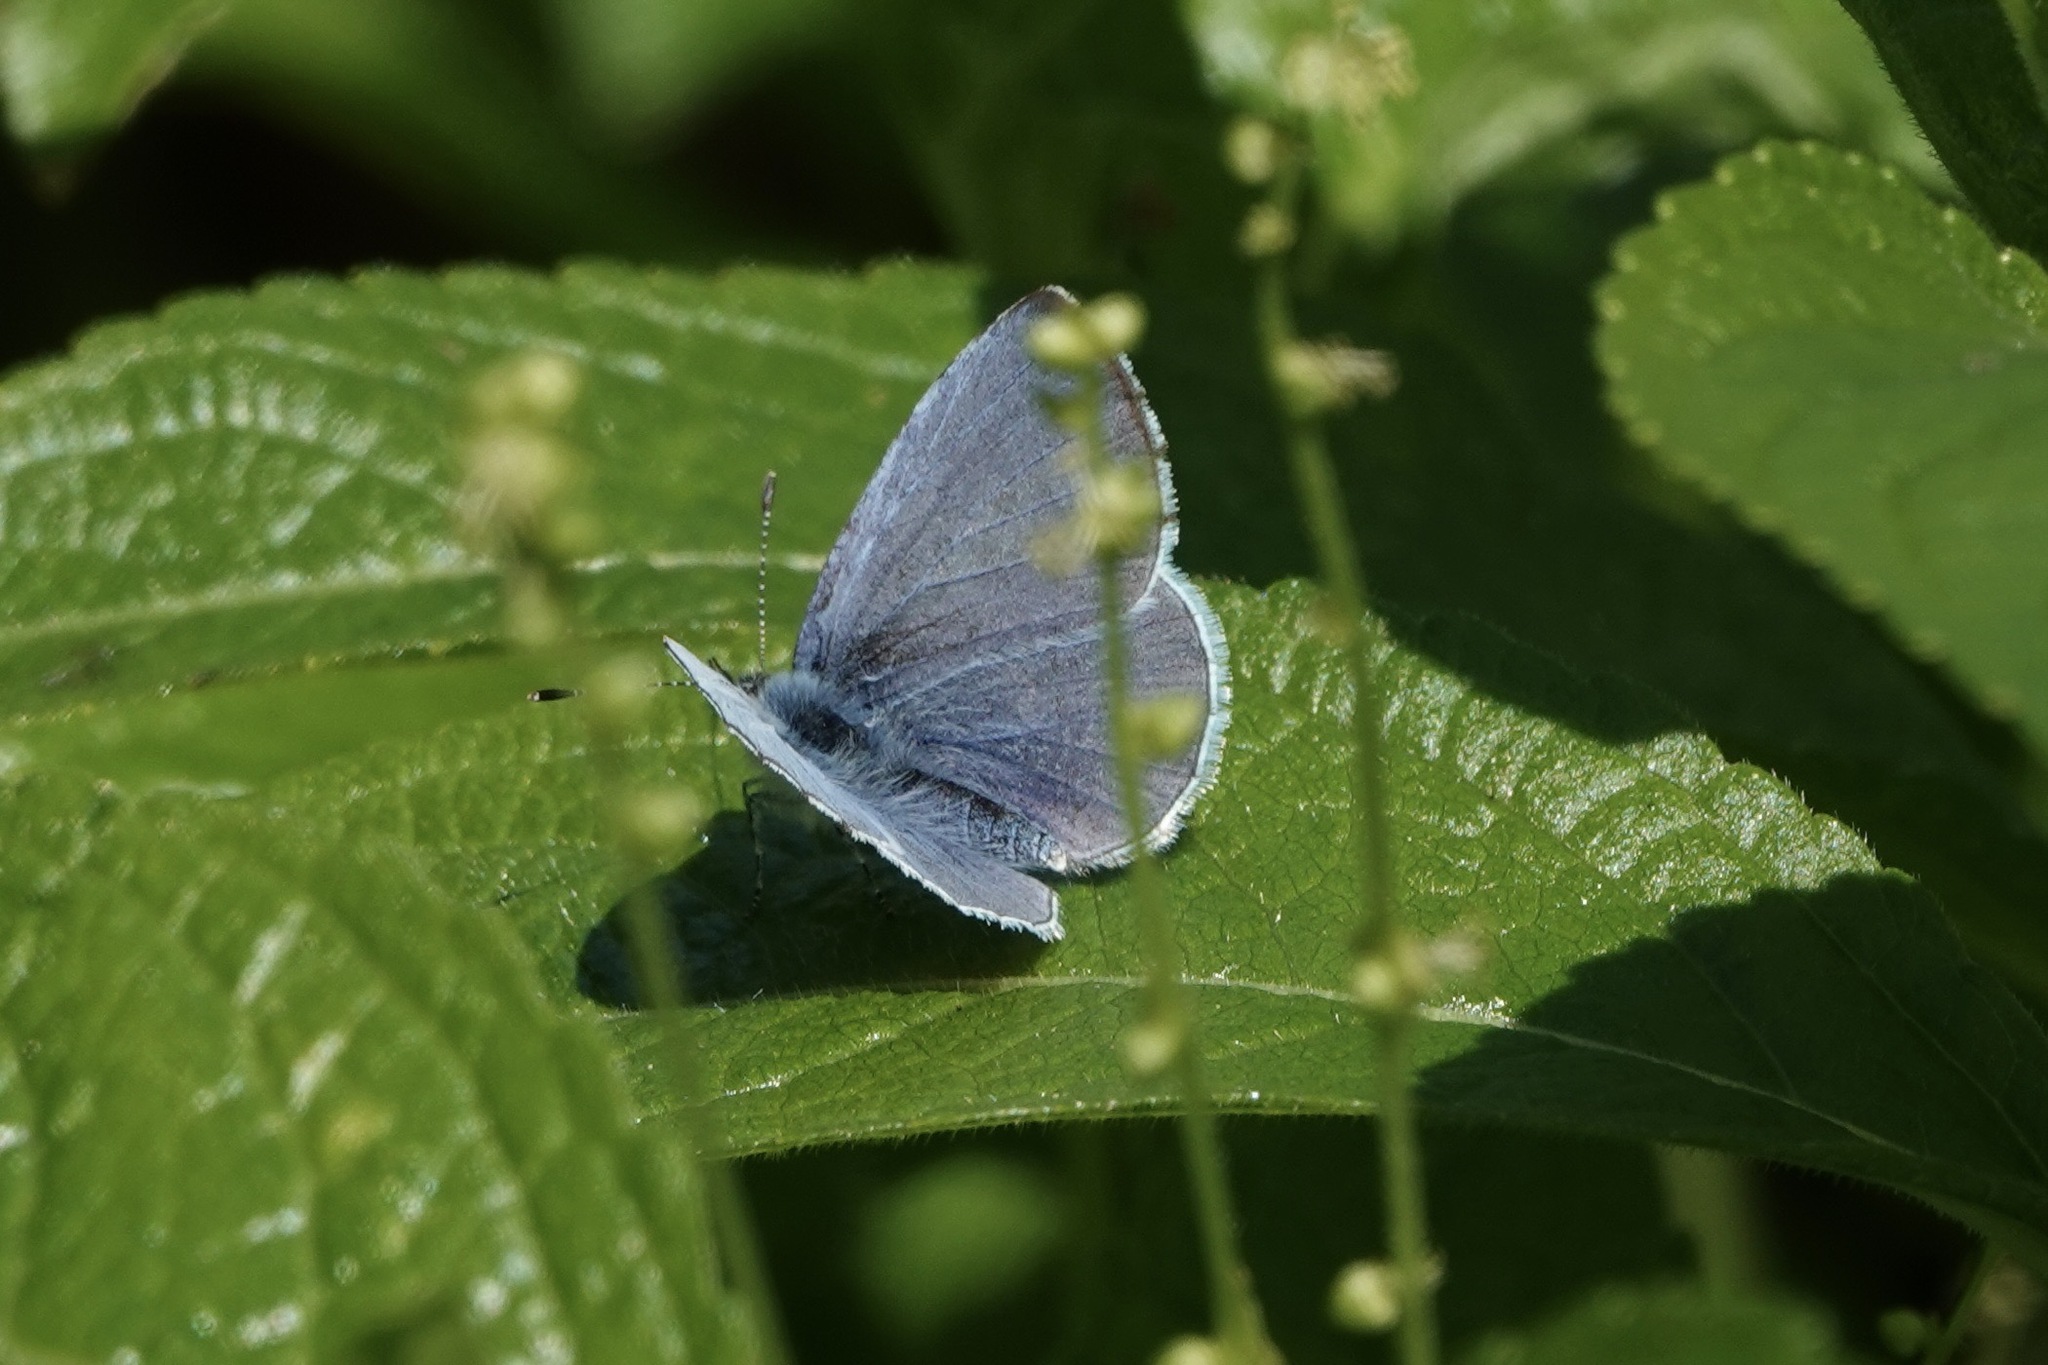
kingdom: Animalia
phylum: Arthropoda
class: Insecta
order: Lepidoptera
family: Lycaenidae
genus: Polyommatus
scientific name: Polyommatus icarus
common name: Common blue
